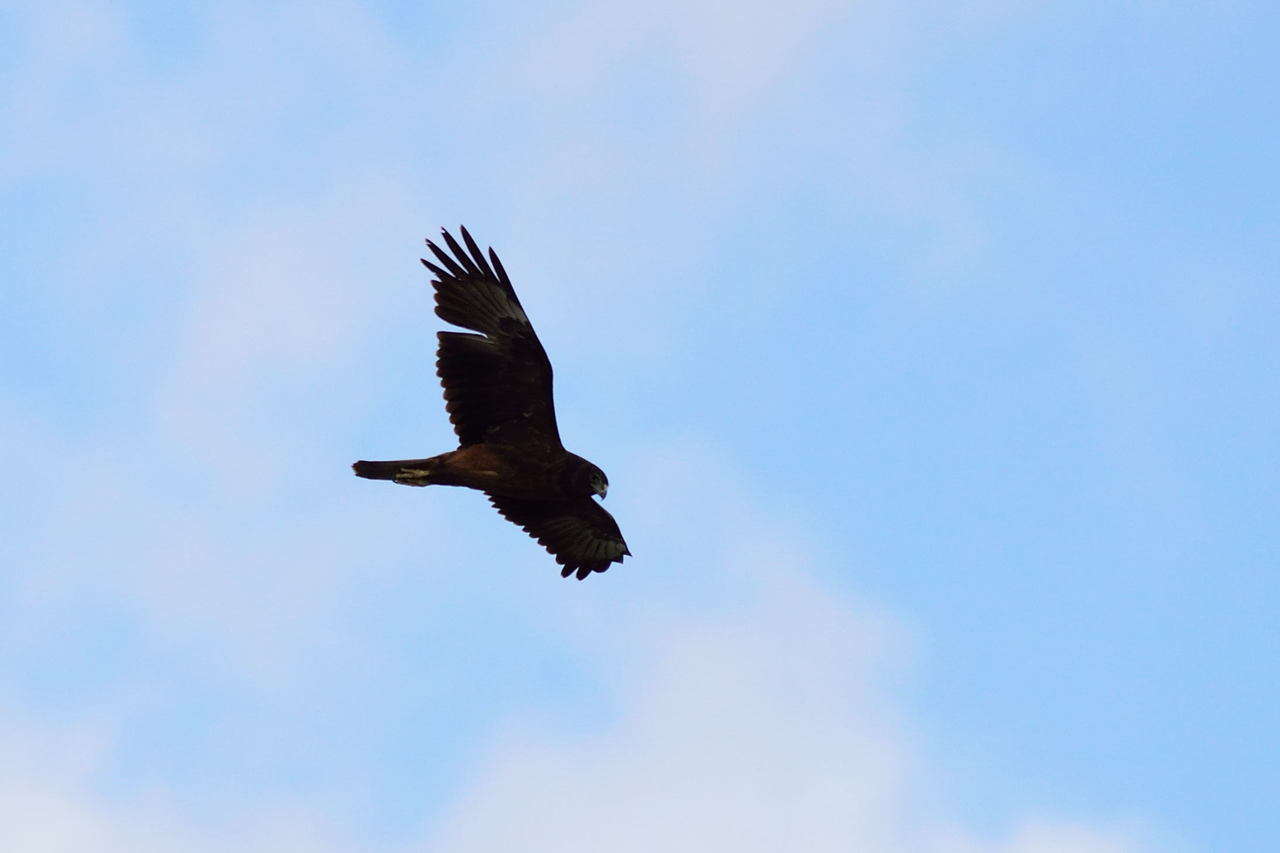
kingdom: Animalia
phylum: Chordata
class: Aves
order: Accipitriformes
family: Accipitridae
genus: Circus
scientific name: Circus approximans
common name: Swamp harrier
